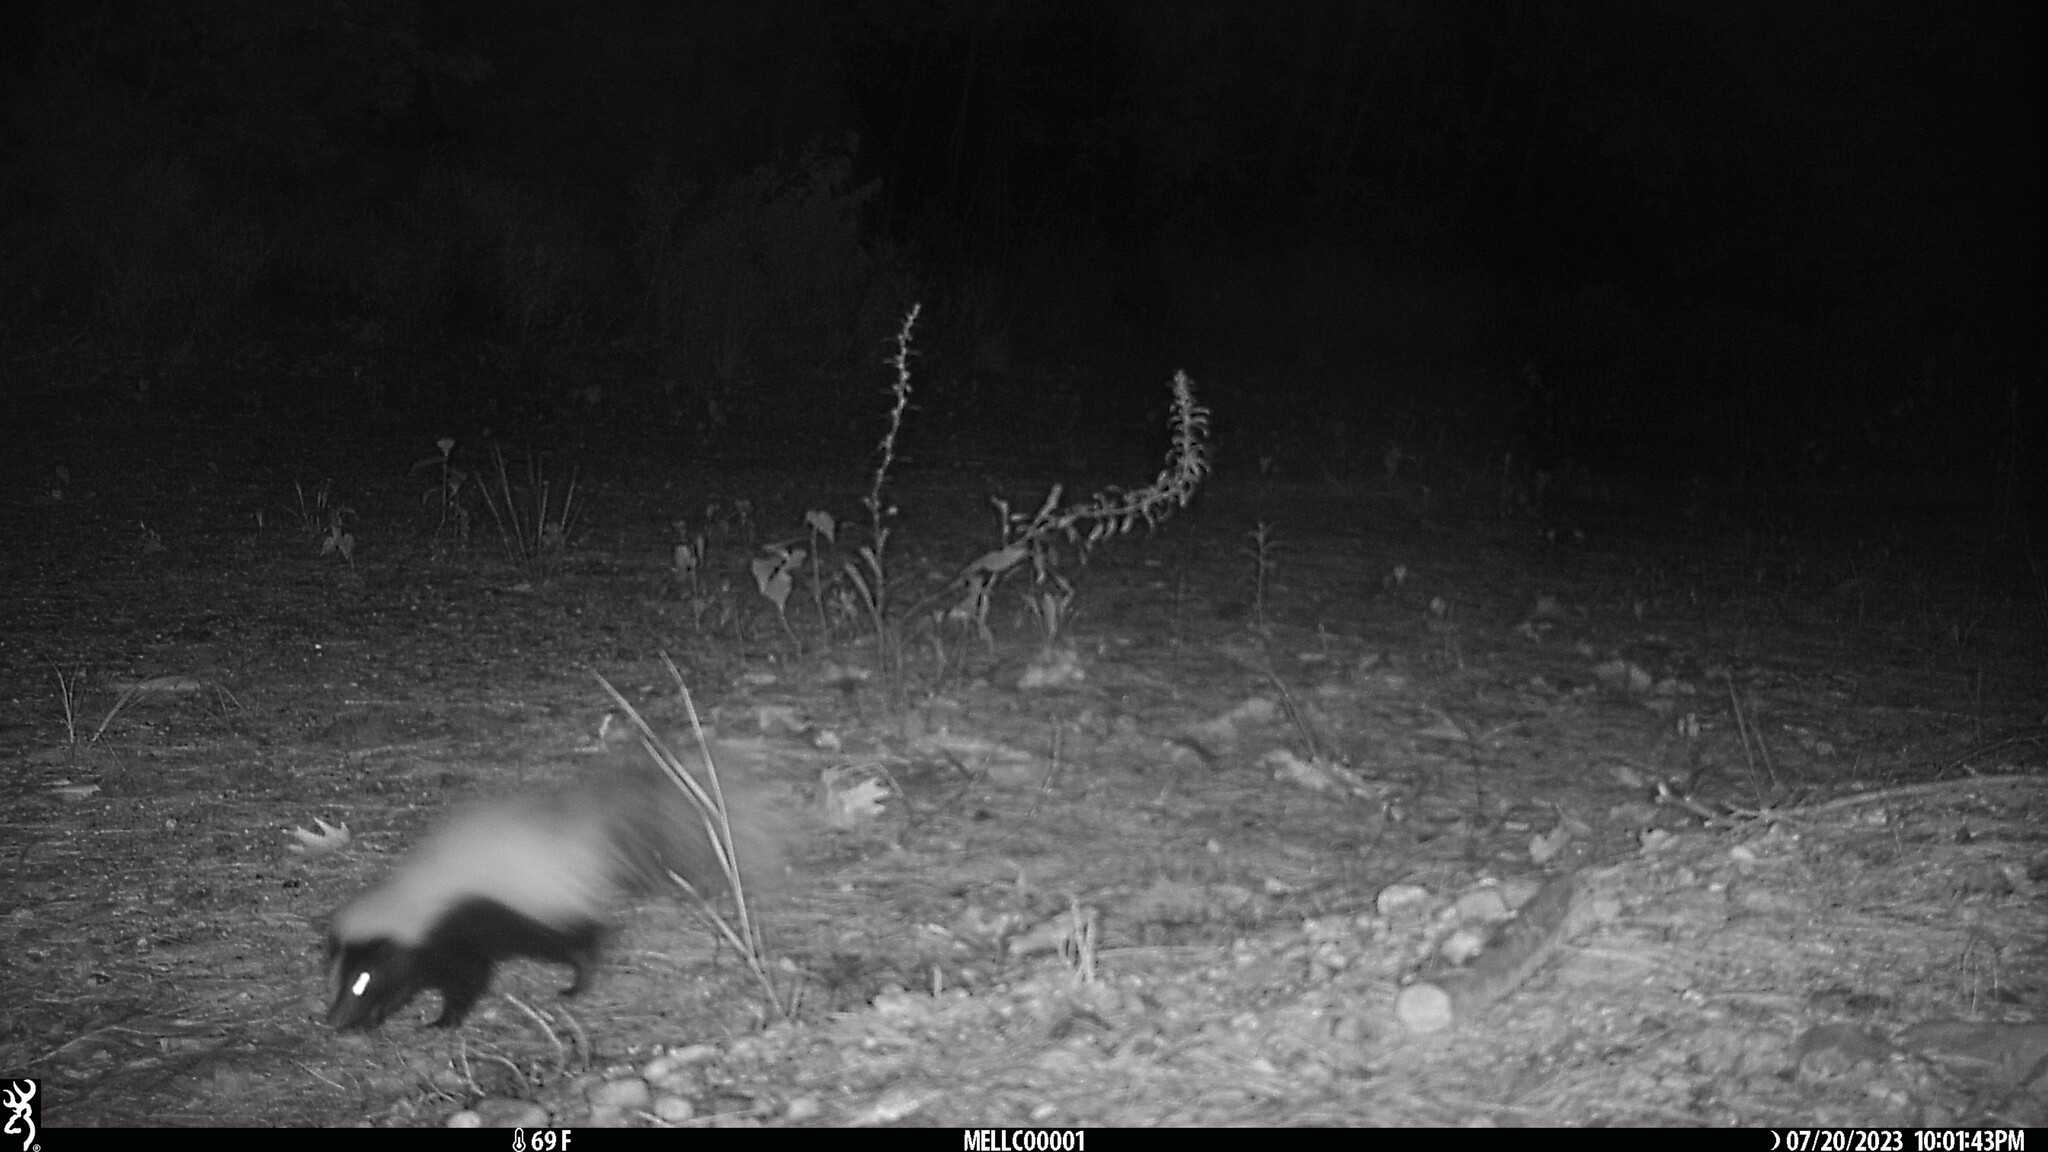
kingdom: Animalia
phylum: Chordata
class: Mammalia
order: Carnivora
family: Mephitidae
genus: Mephitis
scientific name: Mephitis mephitis
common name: Striped skunk
